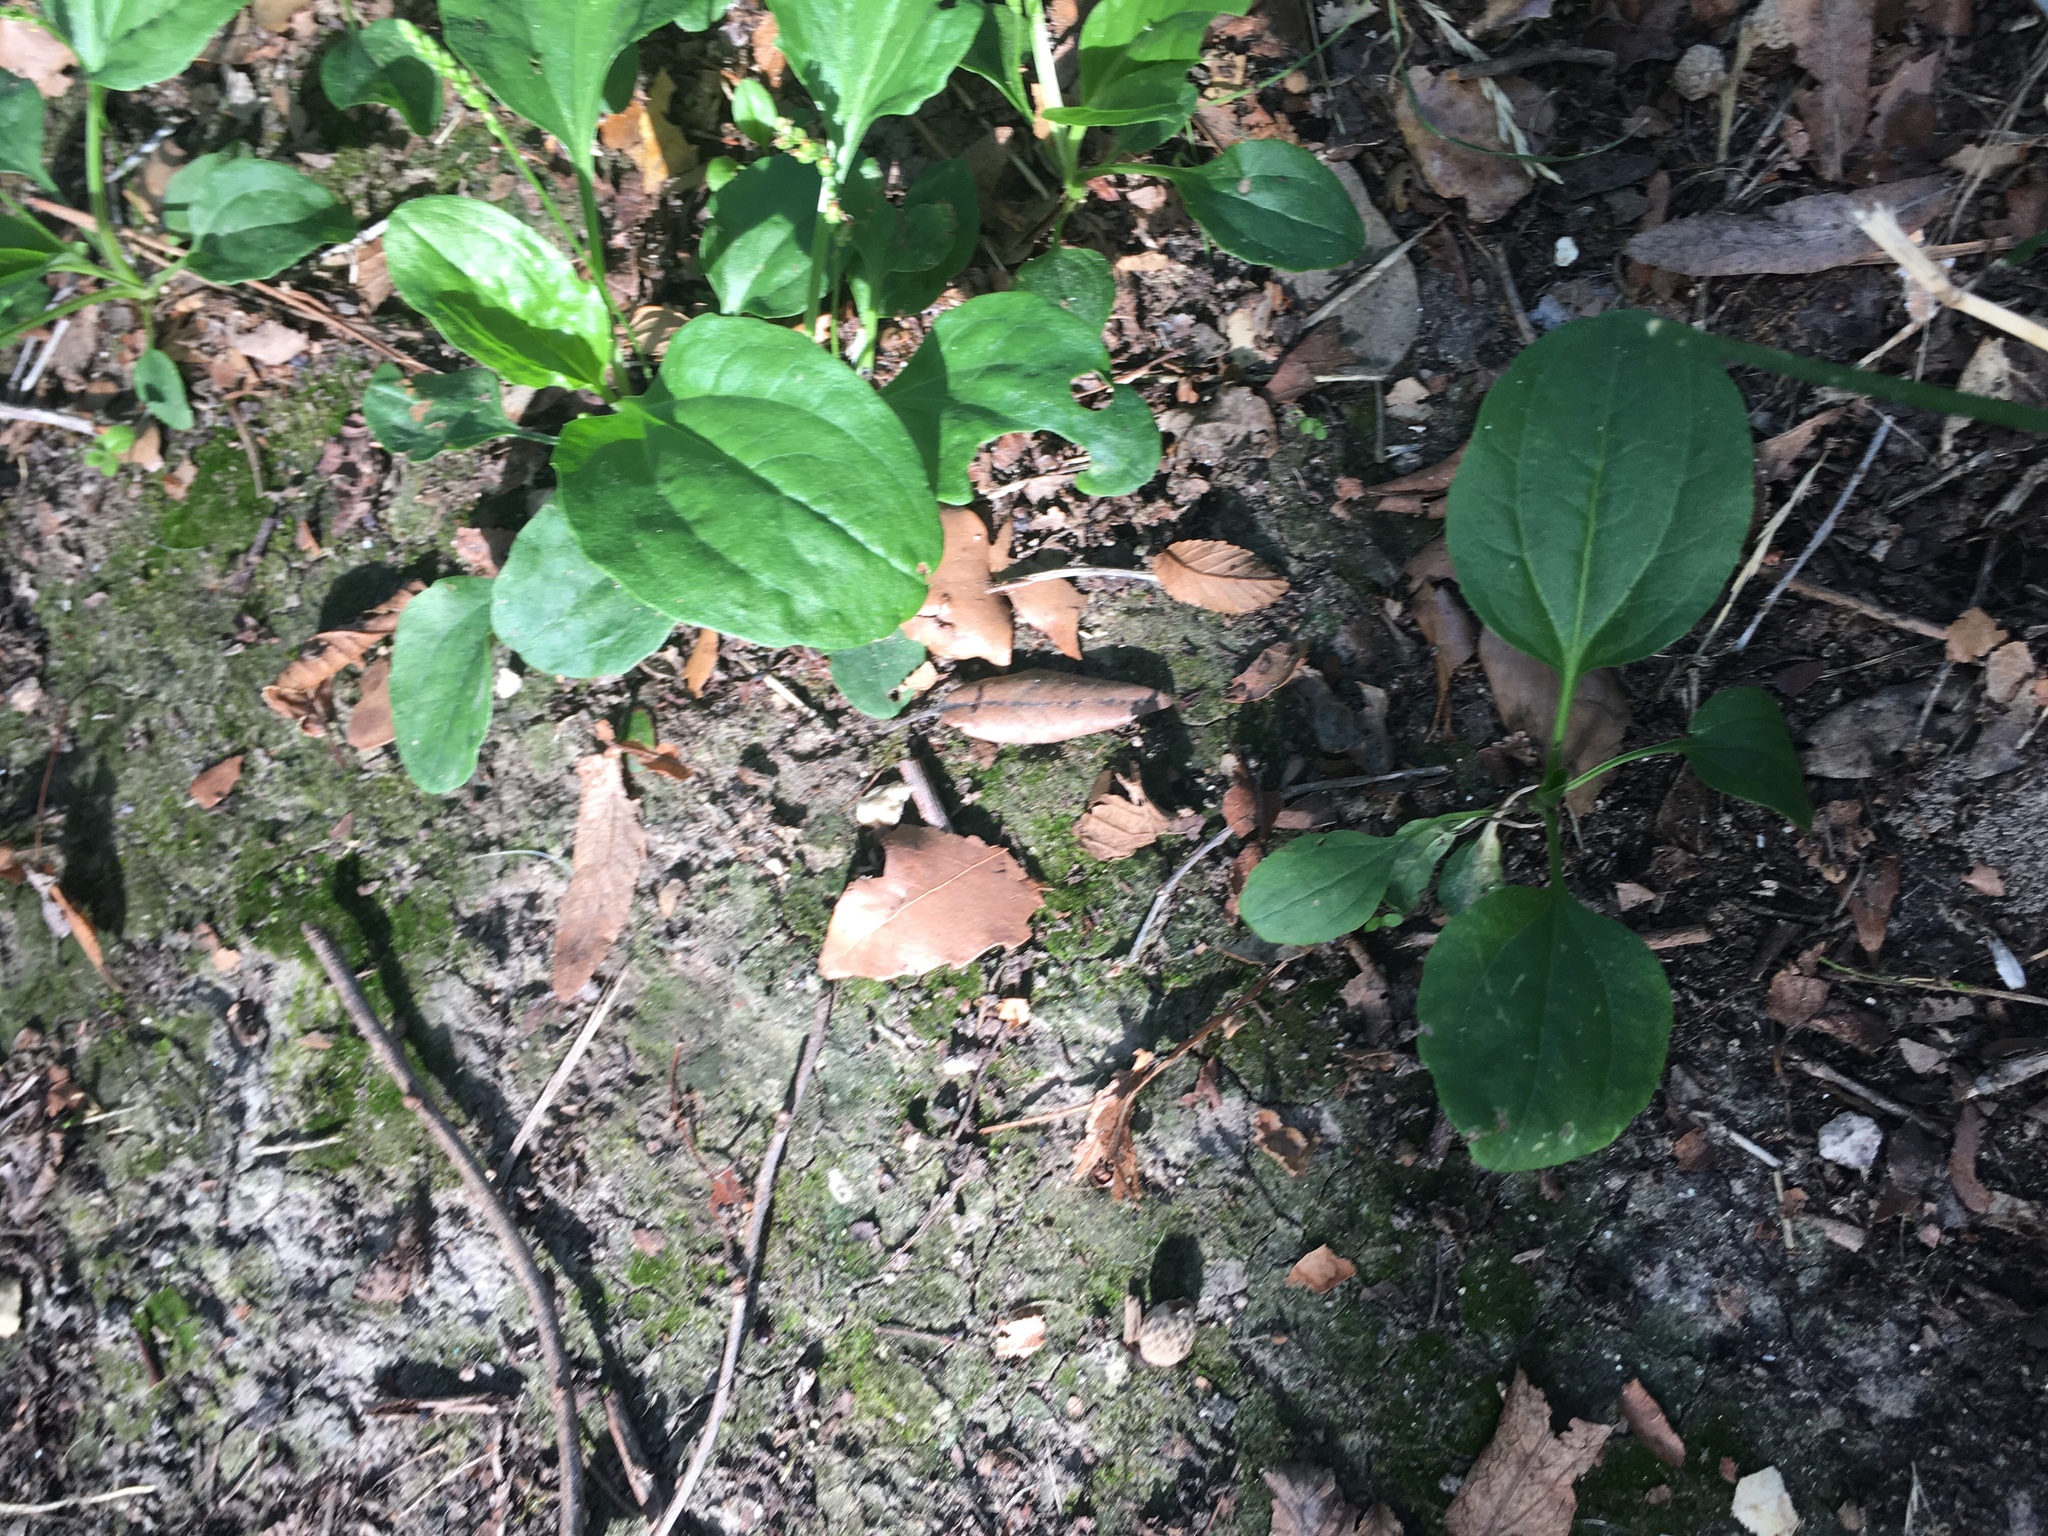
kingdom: Plantae
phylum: Tracheophyta
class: Magnoliopsida
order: Lamiales
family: Plantaginaceae
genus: Plantago
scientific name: Plantago major
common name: Common plantain
